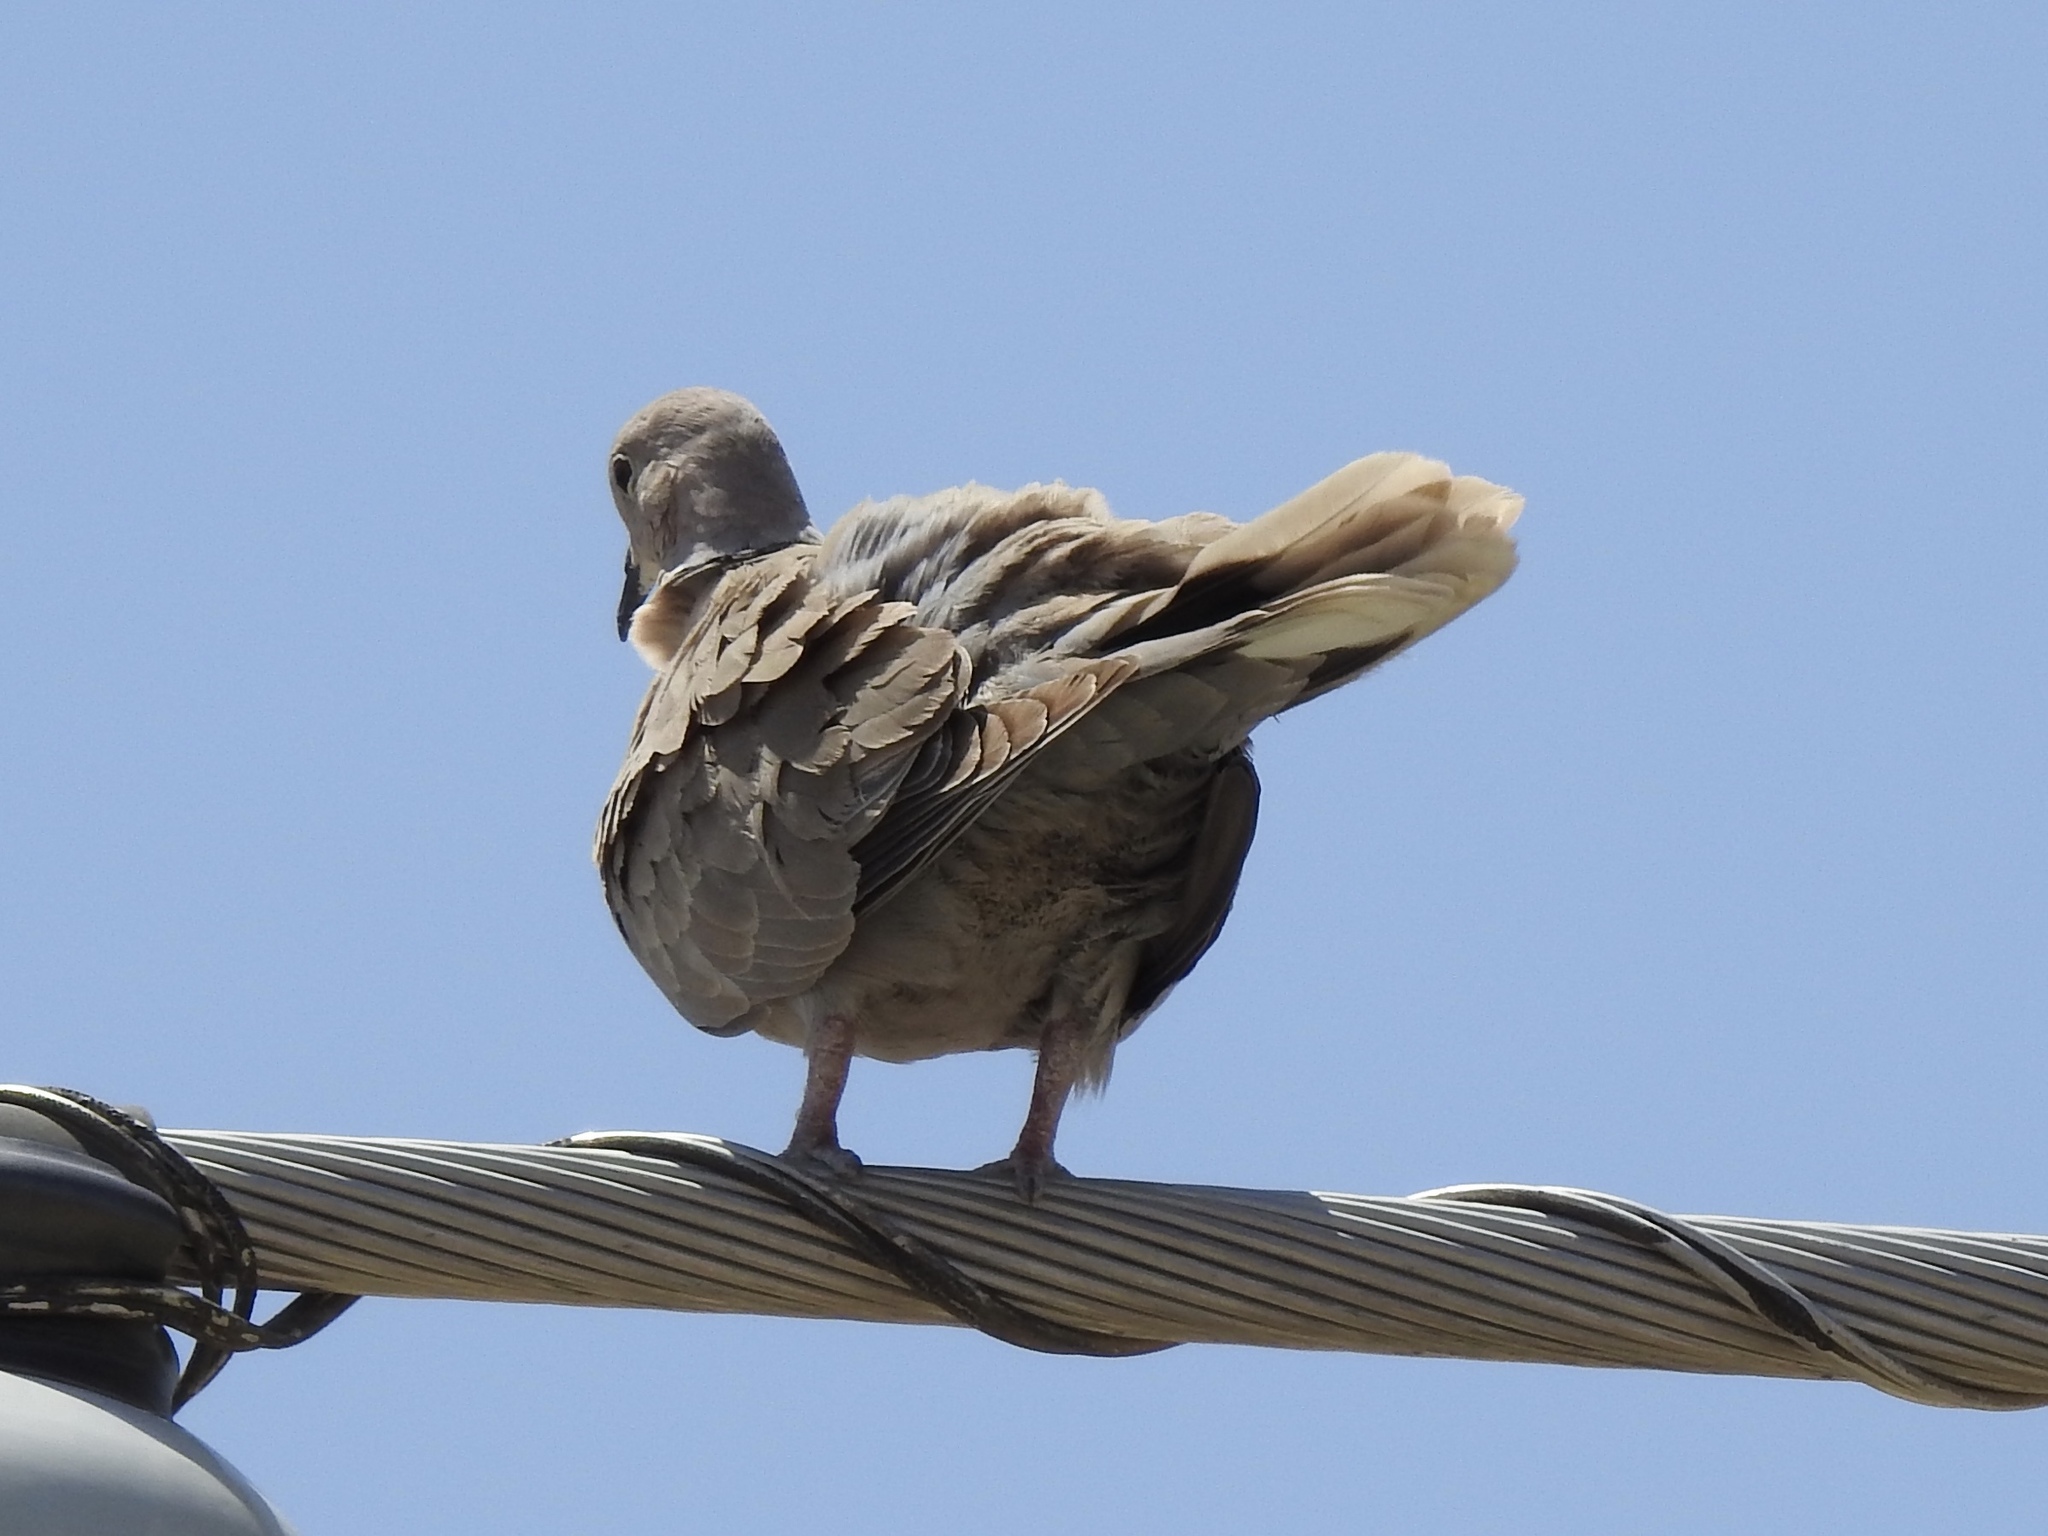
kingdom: Animalia
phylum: Chordata
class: Aves
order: Columbiformes
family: Columbidae
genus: Streptopelia
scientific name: Streptopelia decaocto
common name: Eurasian collared dove
